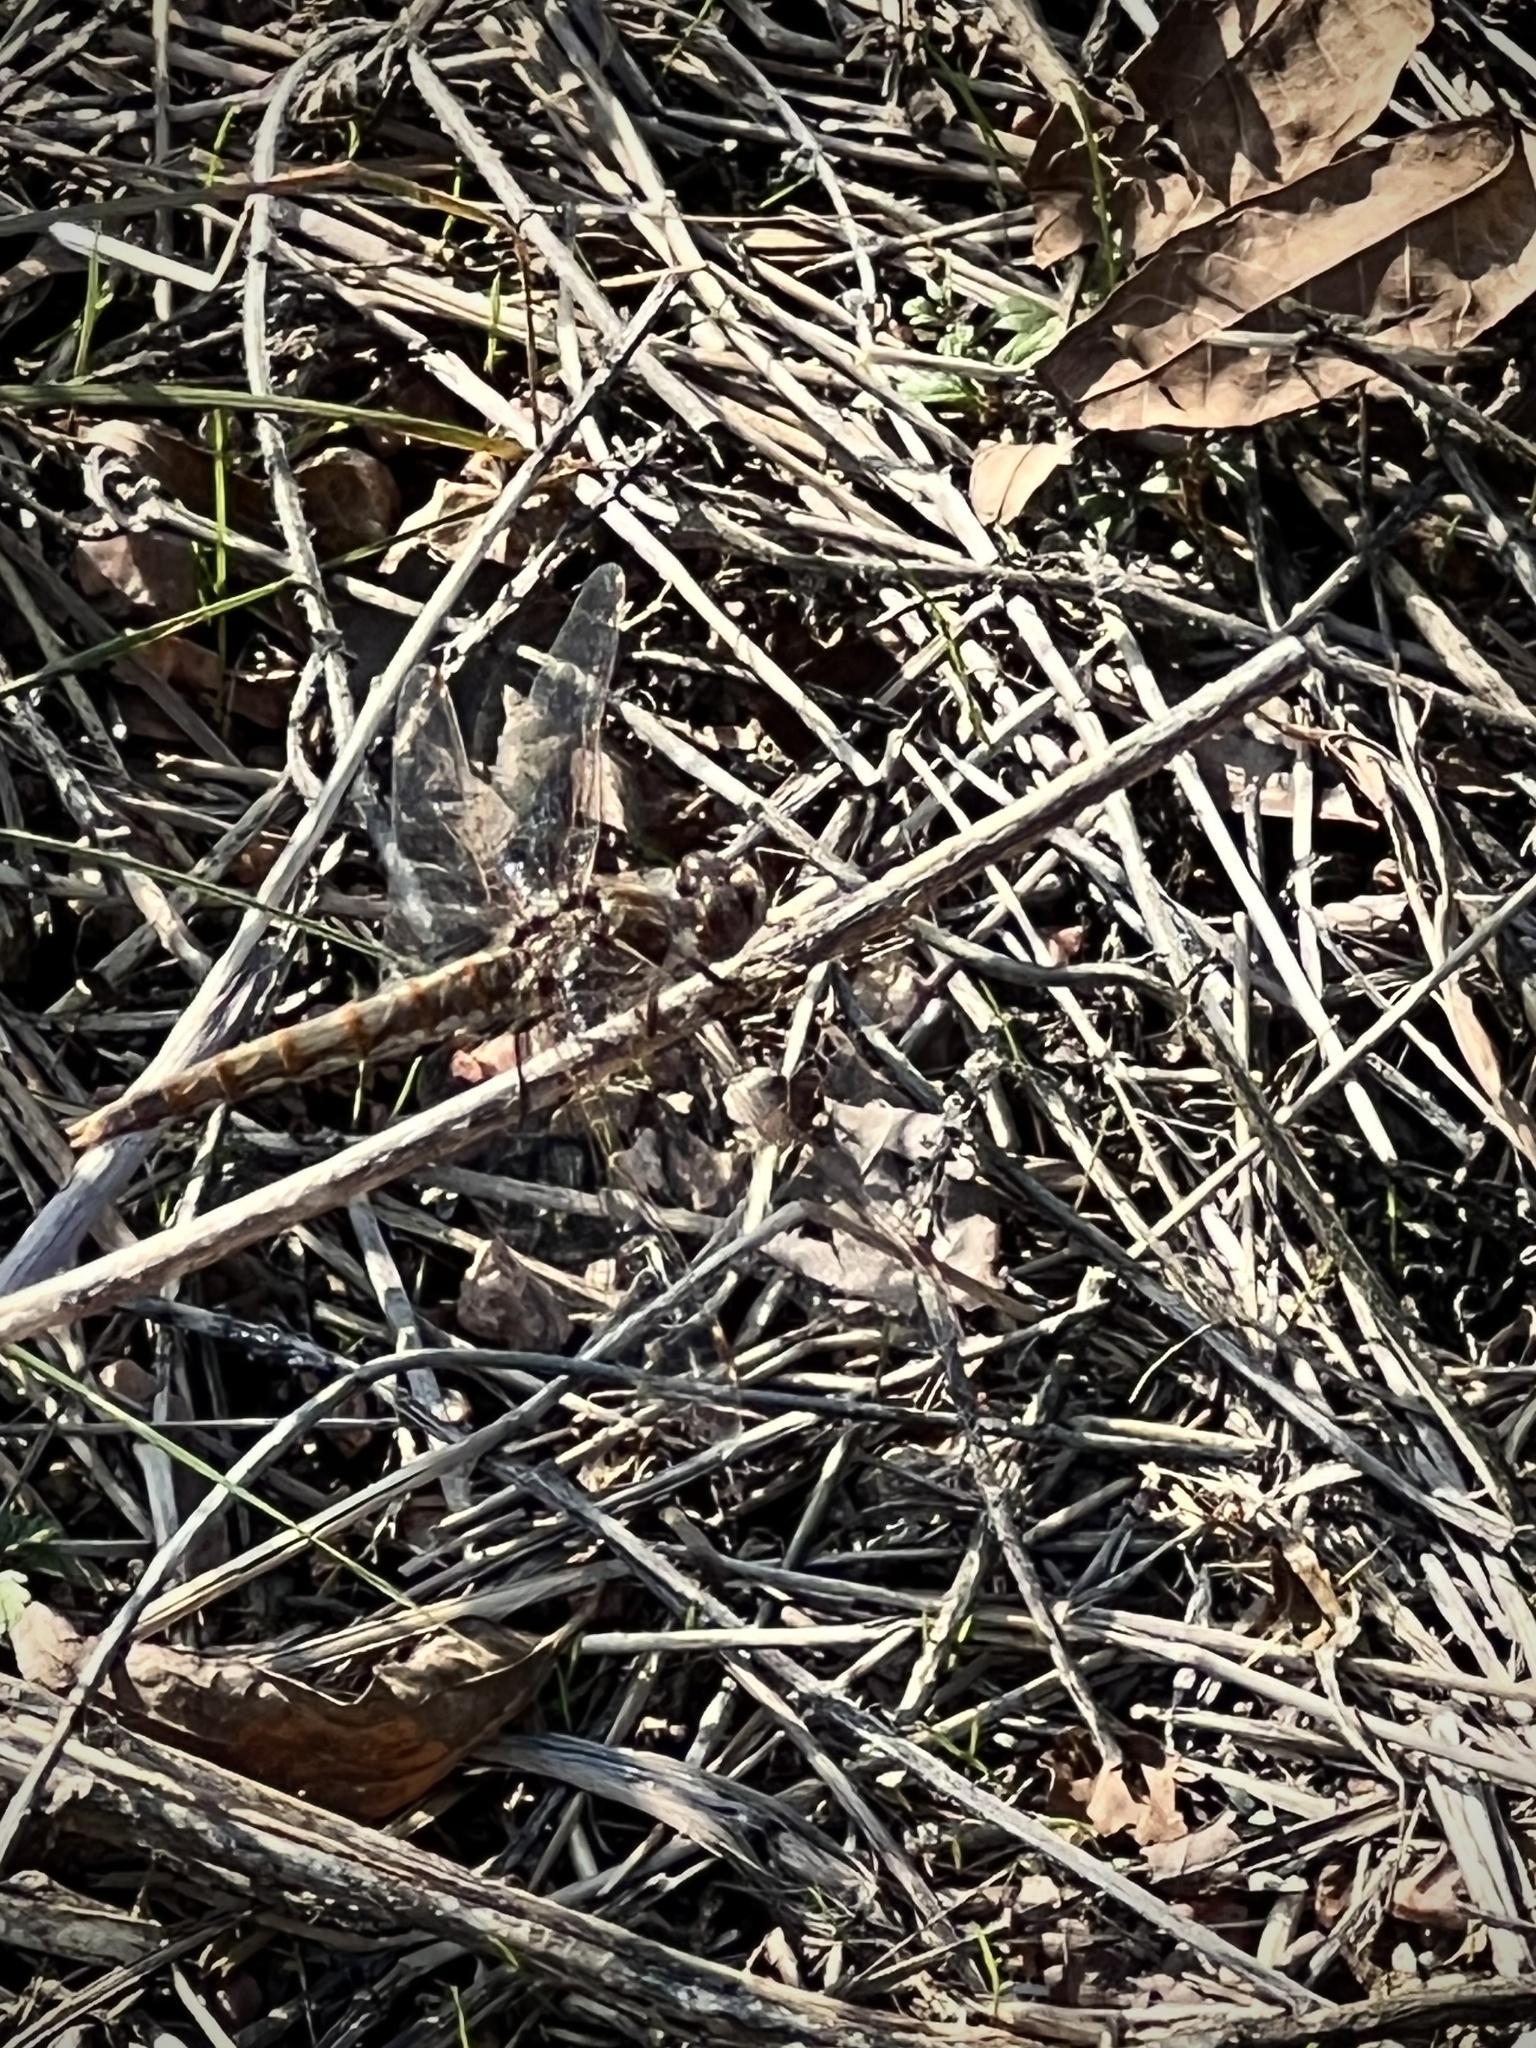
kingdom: Animalia
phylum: Arthropoda
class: Insecta
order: Odonata
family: Libellulidae
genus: Sympetrum
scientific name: Sympetrum corruptum
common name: Variegated meadowhawk
